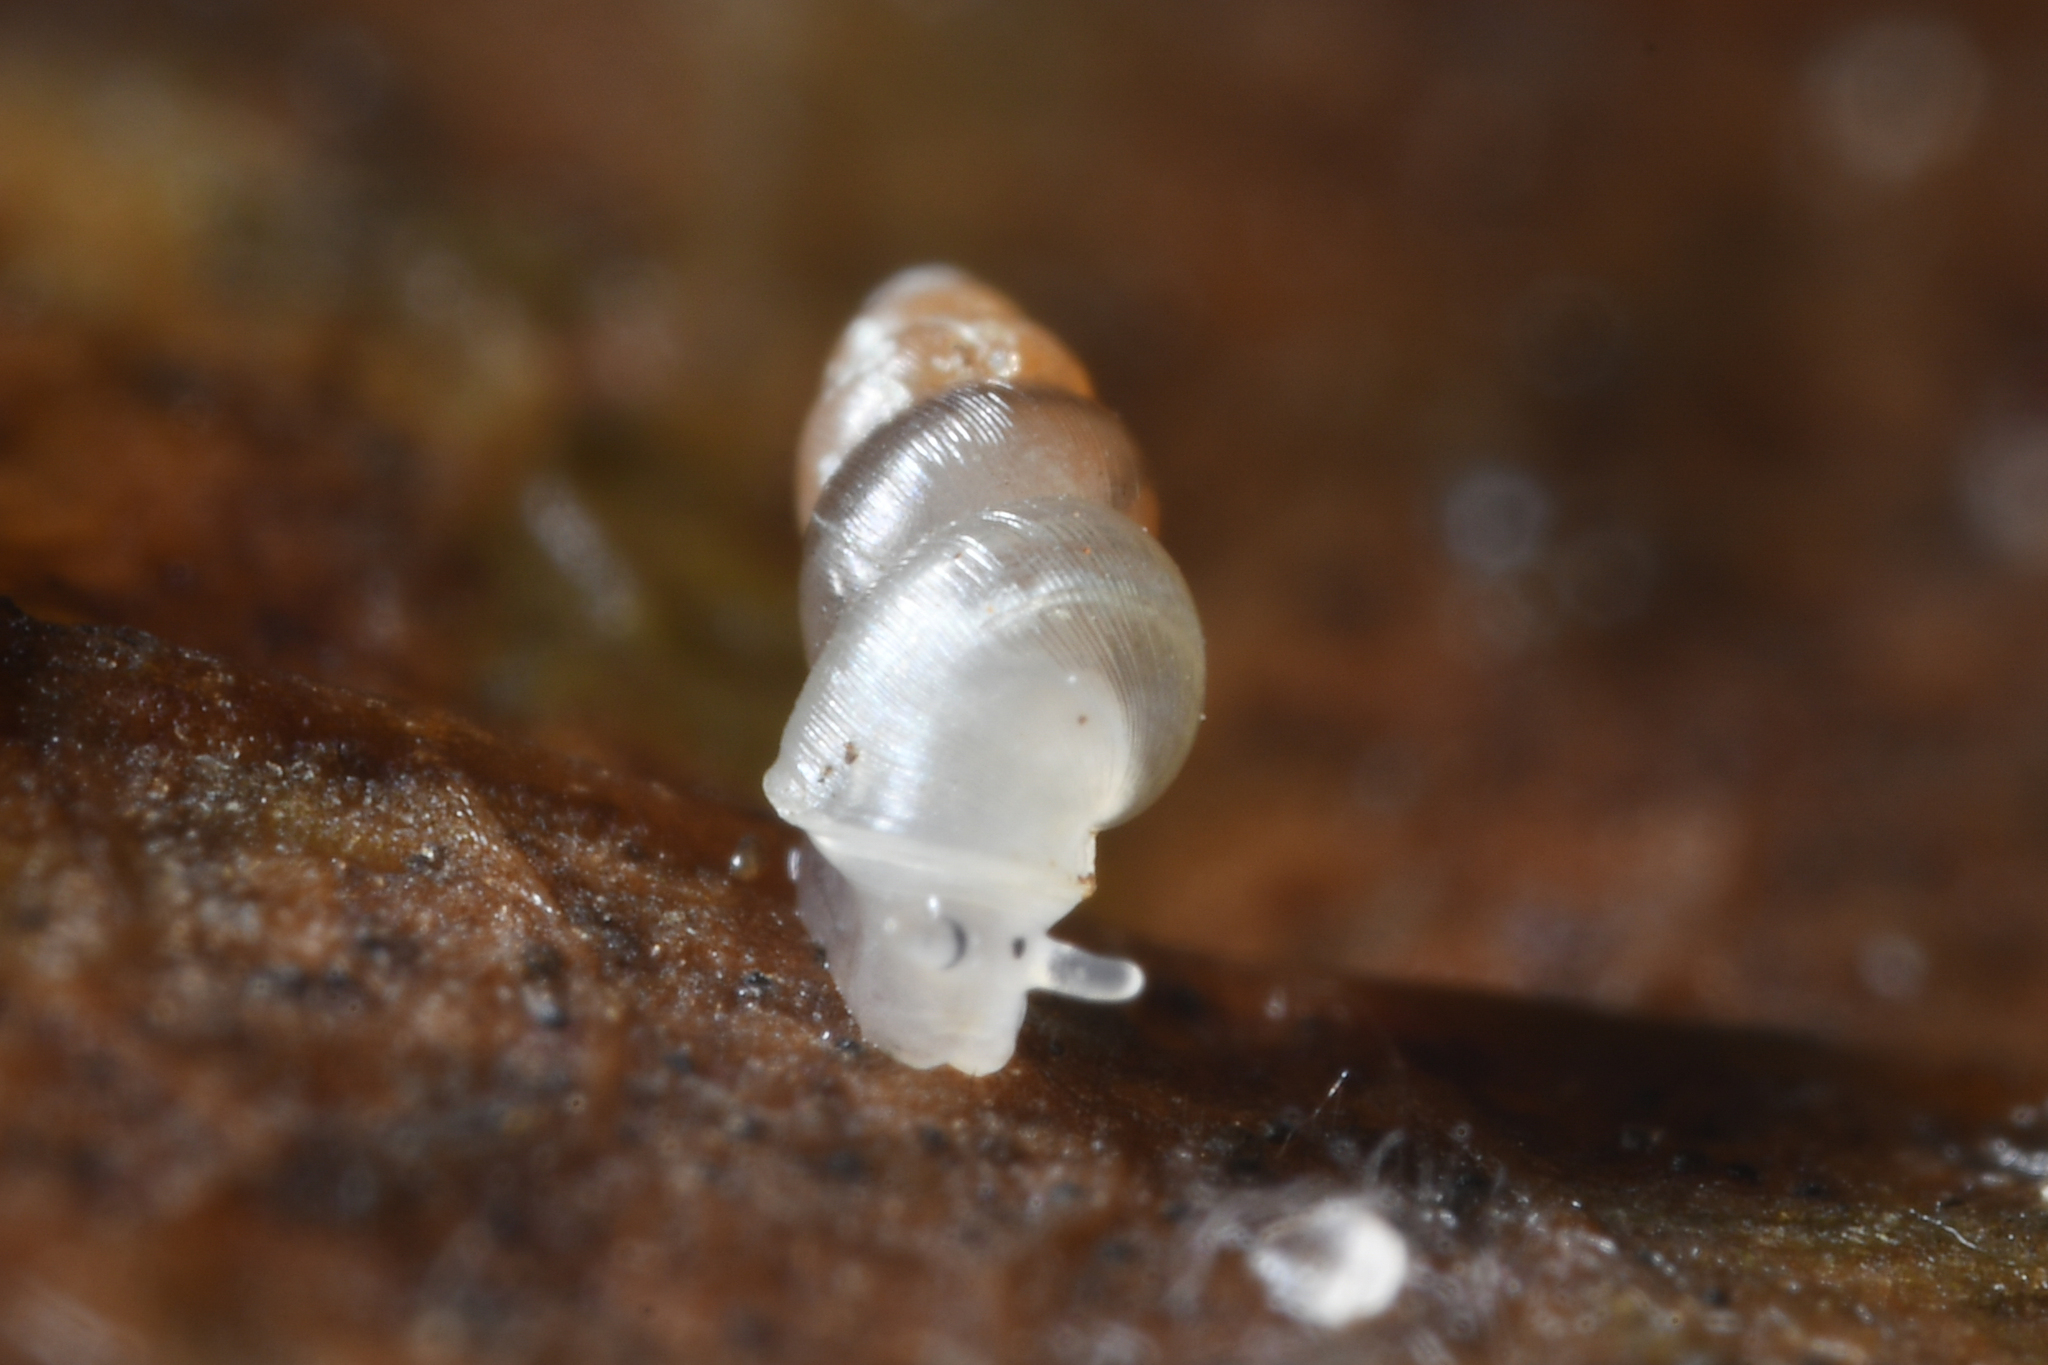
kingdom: Animalia
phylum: Mollusca
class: Gastropoda
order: Ellobiida
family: Ellobiidae
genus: Carychium
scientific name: Carychium tridentatum
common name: Long-toothed herald snail
